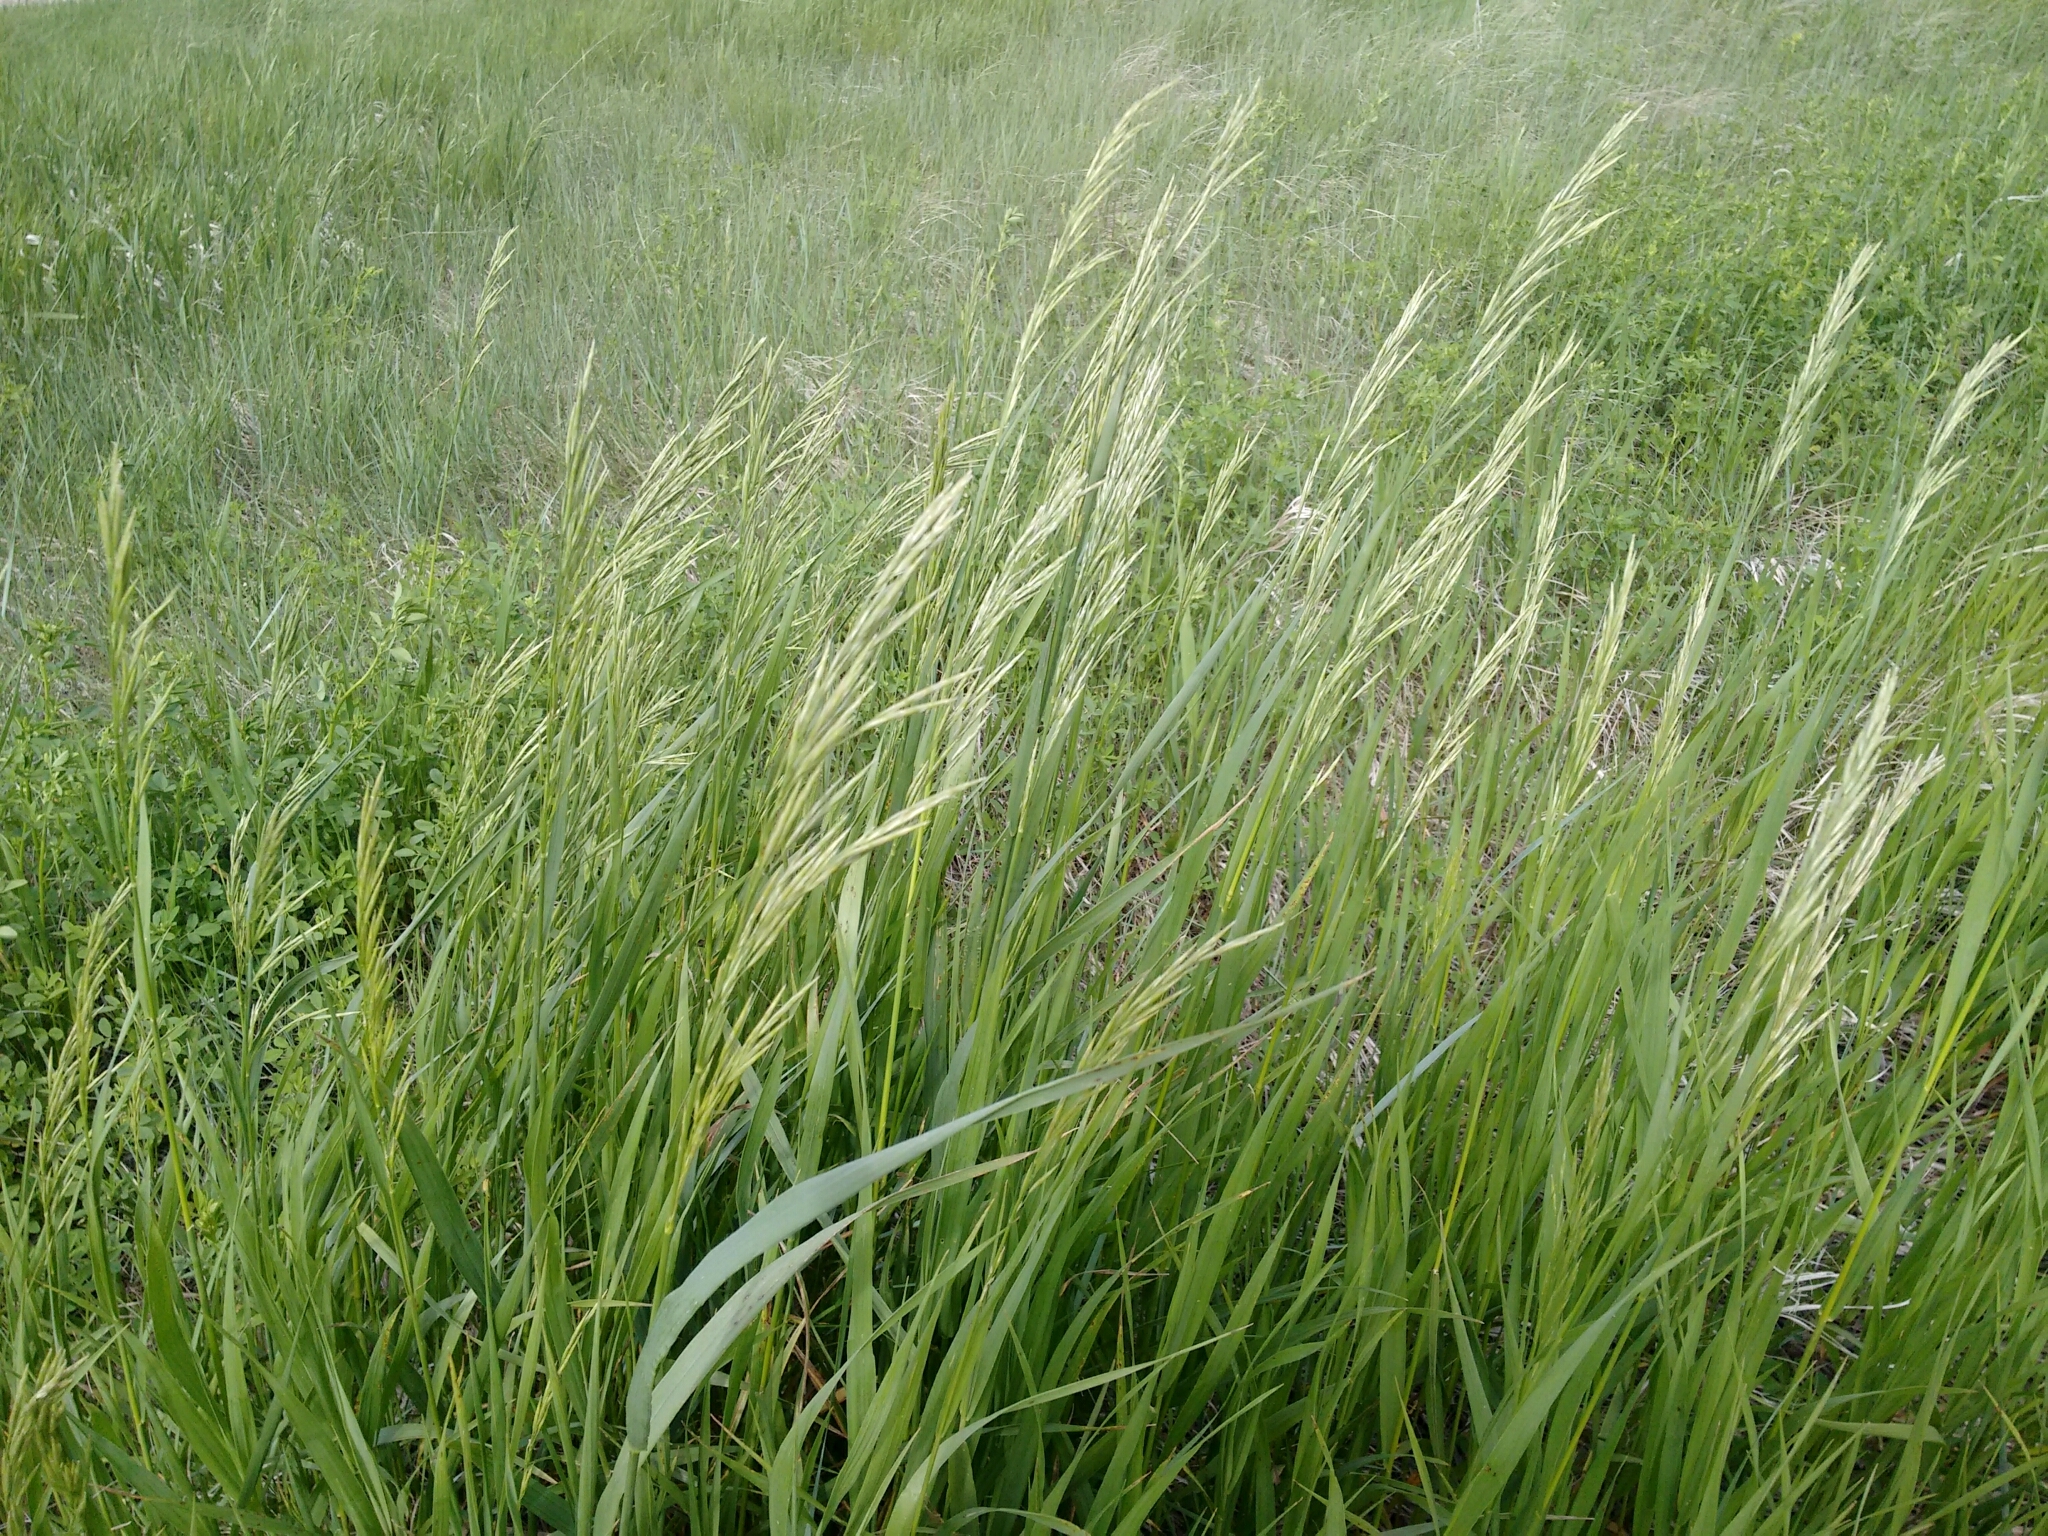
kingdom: Plantae
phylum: Tracheophyta
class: Liliopsida
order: Poales
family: Poaceae
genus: Bromus
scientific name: Bromus inermis
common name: Smooth brome
